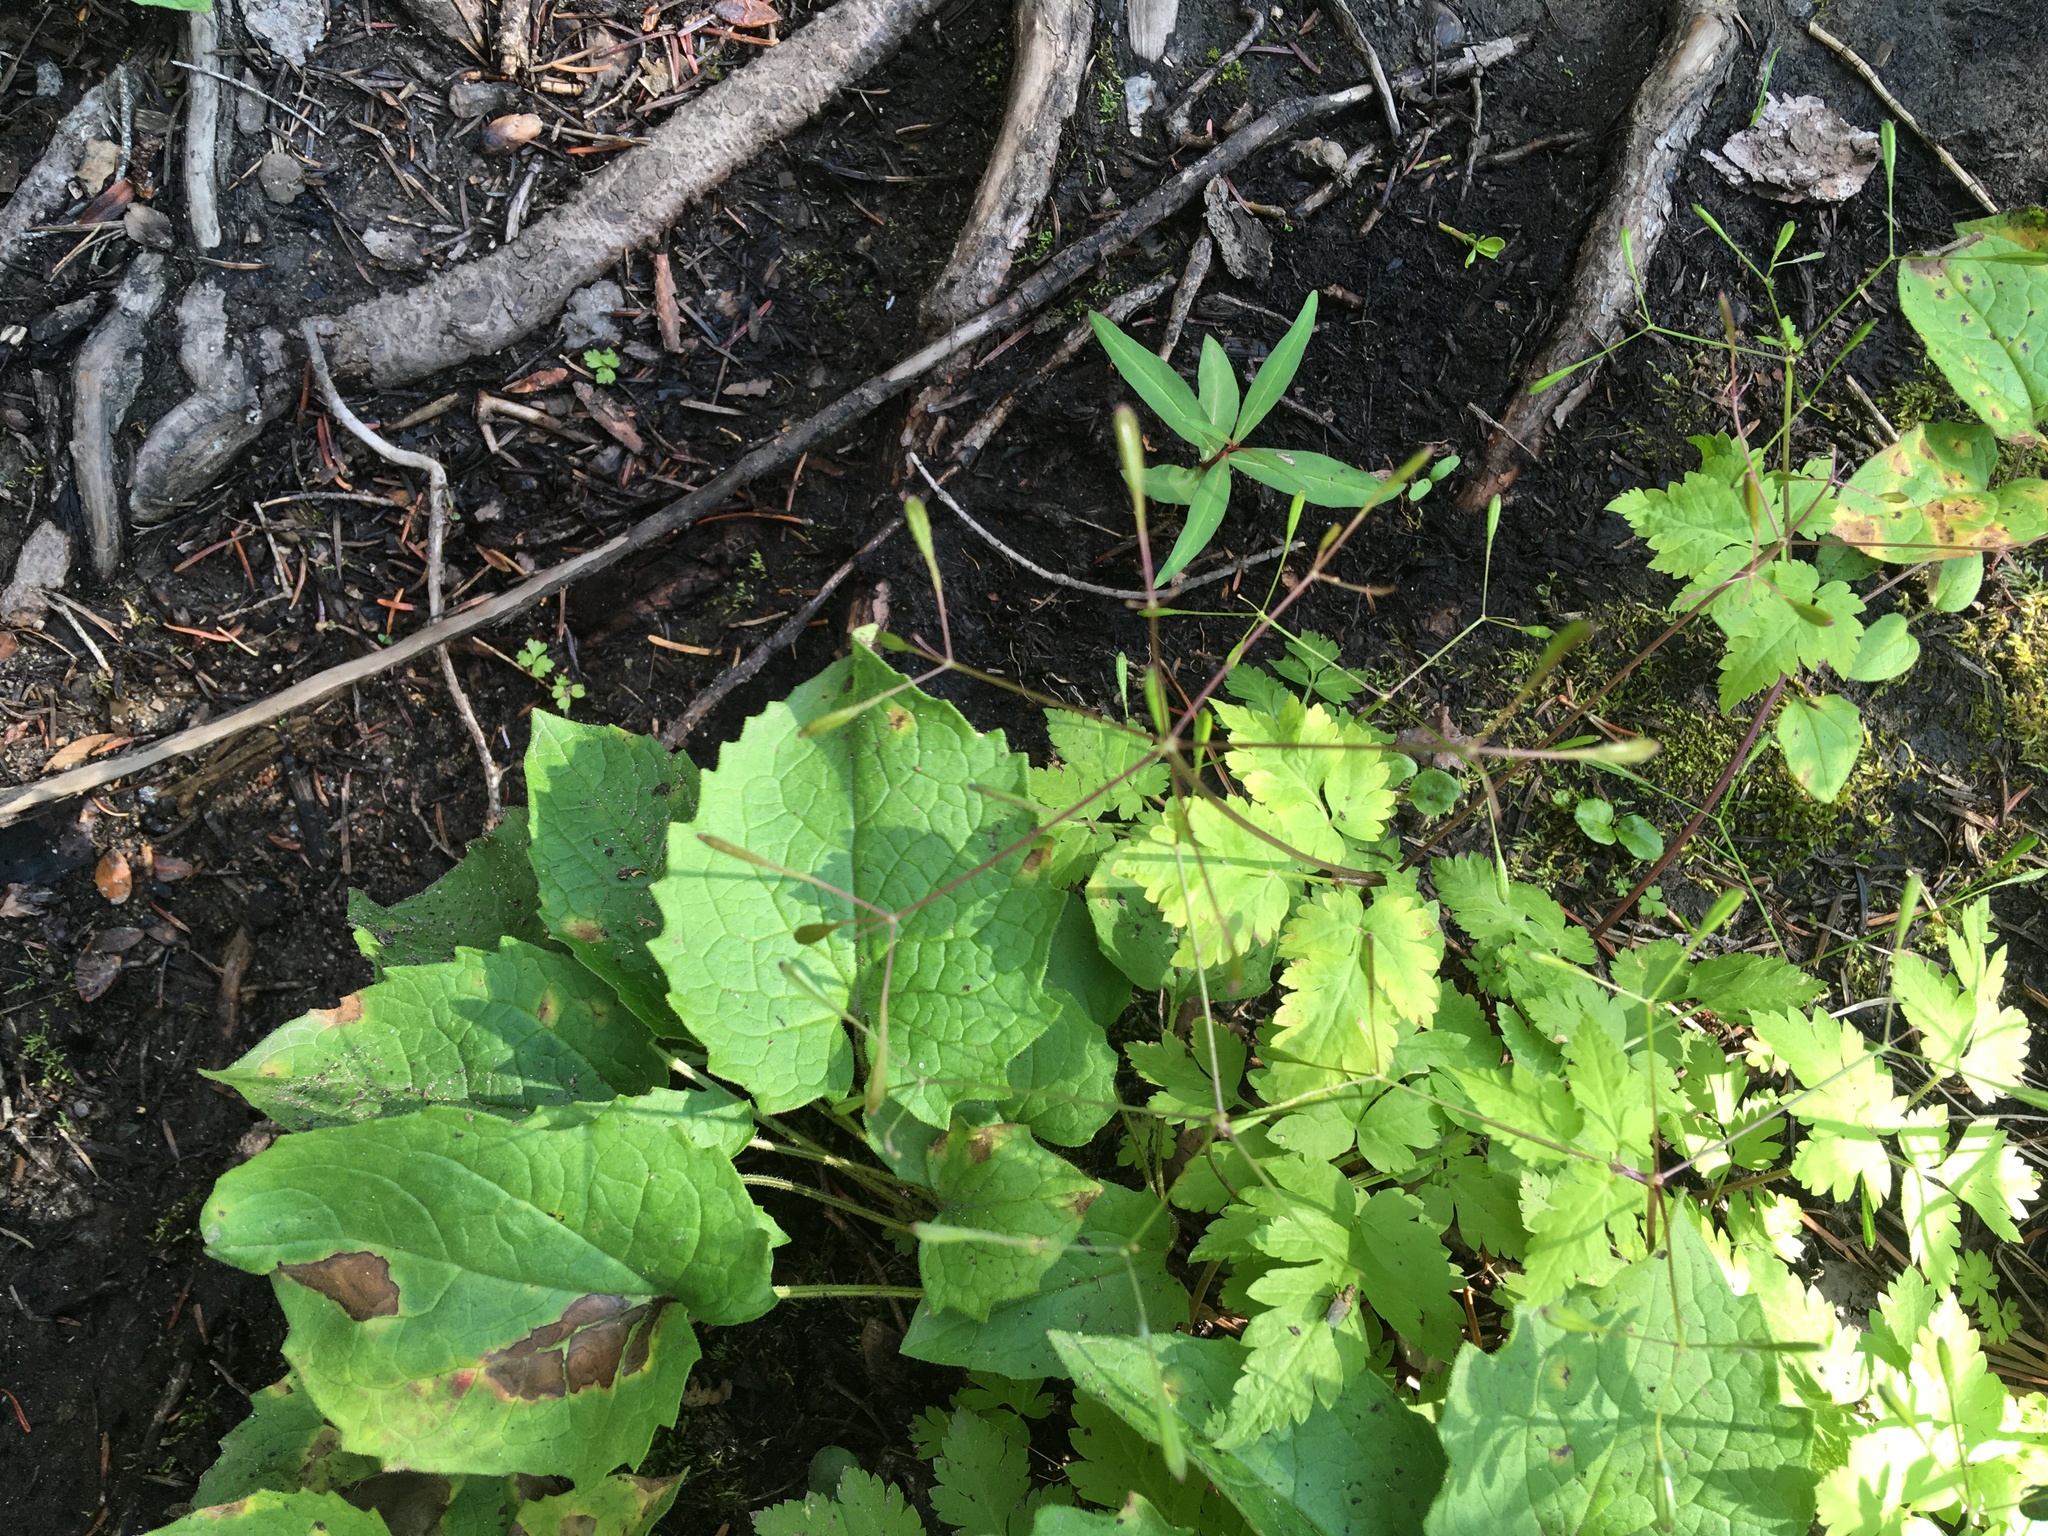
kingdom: Plantae
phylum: Tracheophyta
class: Magnoliopsida
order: Asterales
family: Asteraceae
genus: Arnica
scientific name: Arnica cordifolia
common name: Heart-leaf arnica
